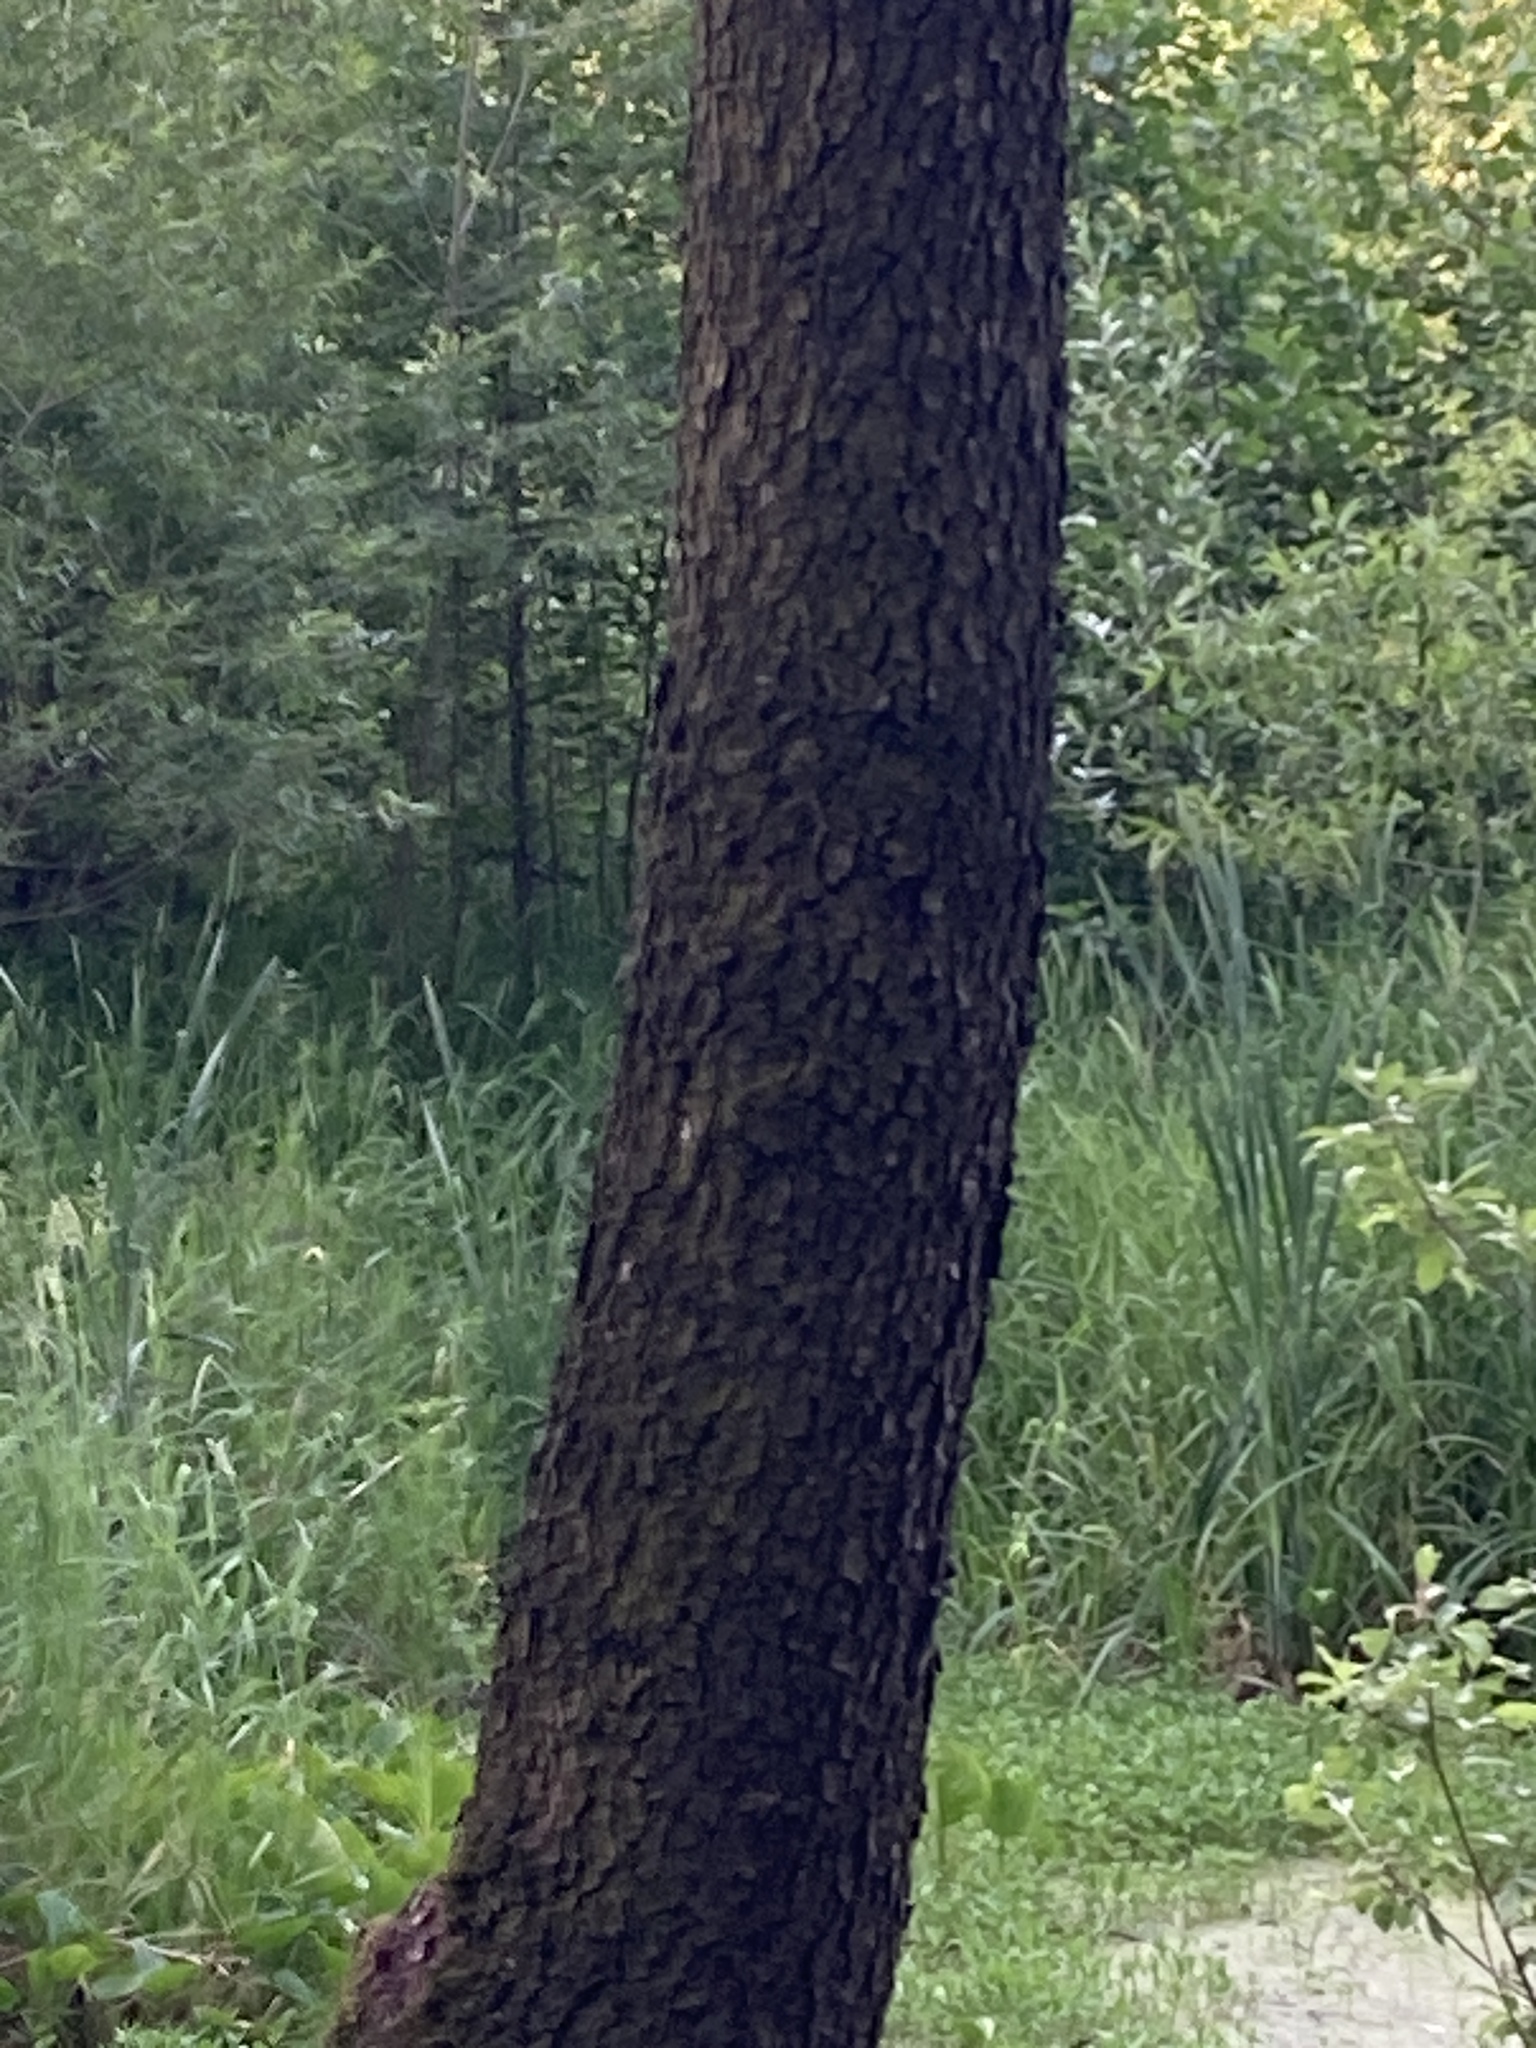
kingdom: Plantae
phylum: Tracheophyta
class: Magnoliopsida
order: Fagales
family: Betulaceae
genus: Alnus
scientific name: Alnus glutinosa
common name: Black alder
